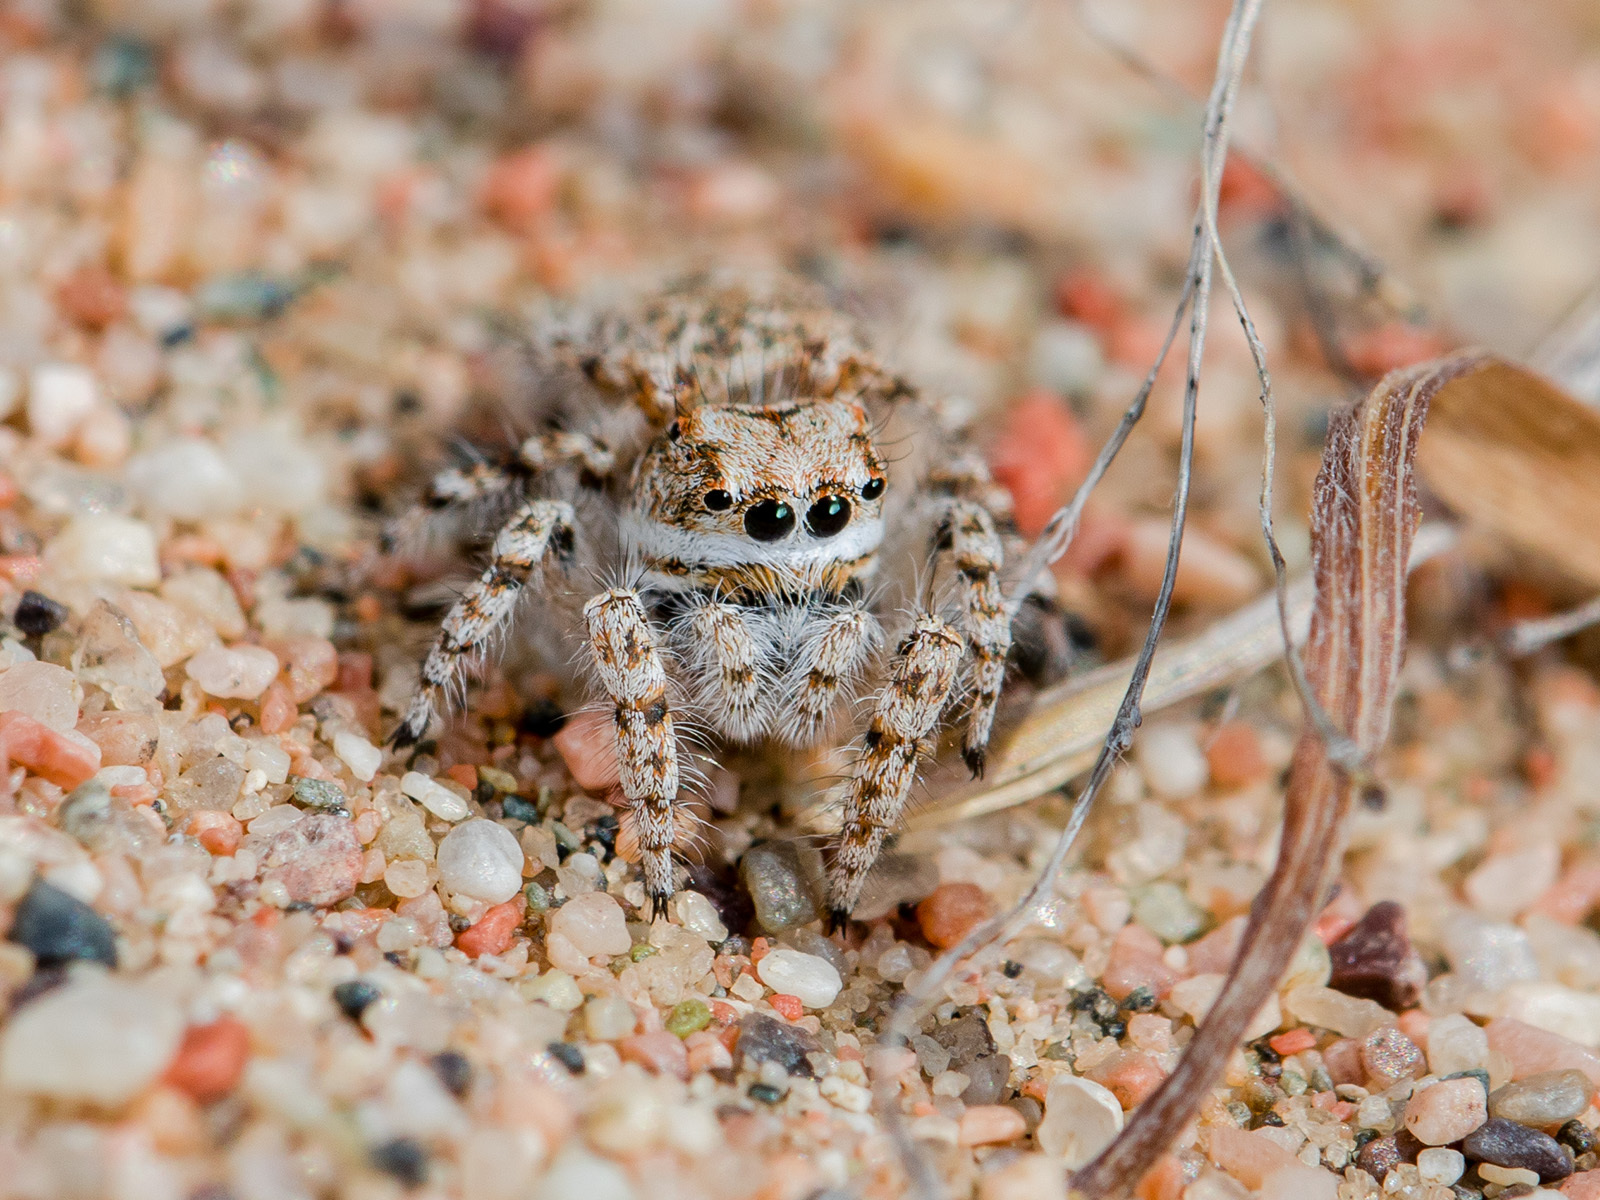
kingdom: Animalia
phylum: Arthropoda
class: Arachnida
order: Araneae
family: Salticidae
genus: Yllenus
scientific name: Yllenus uiguricus
